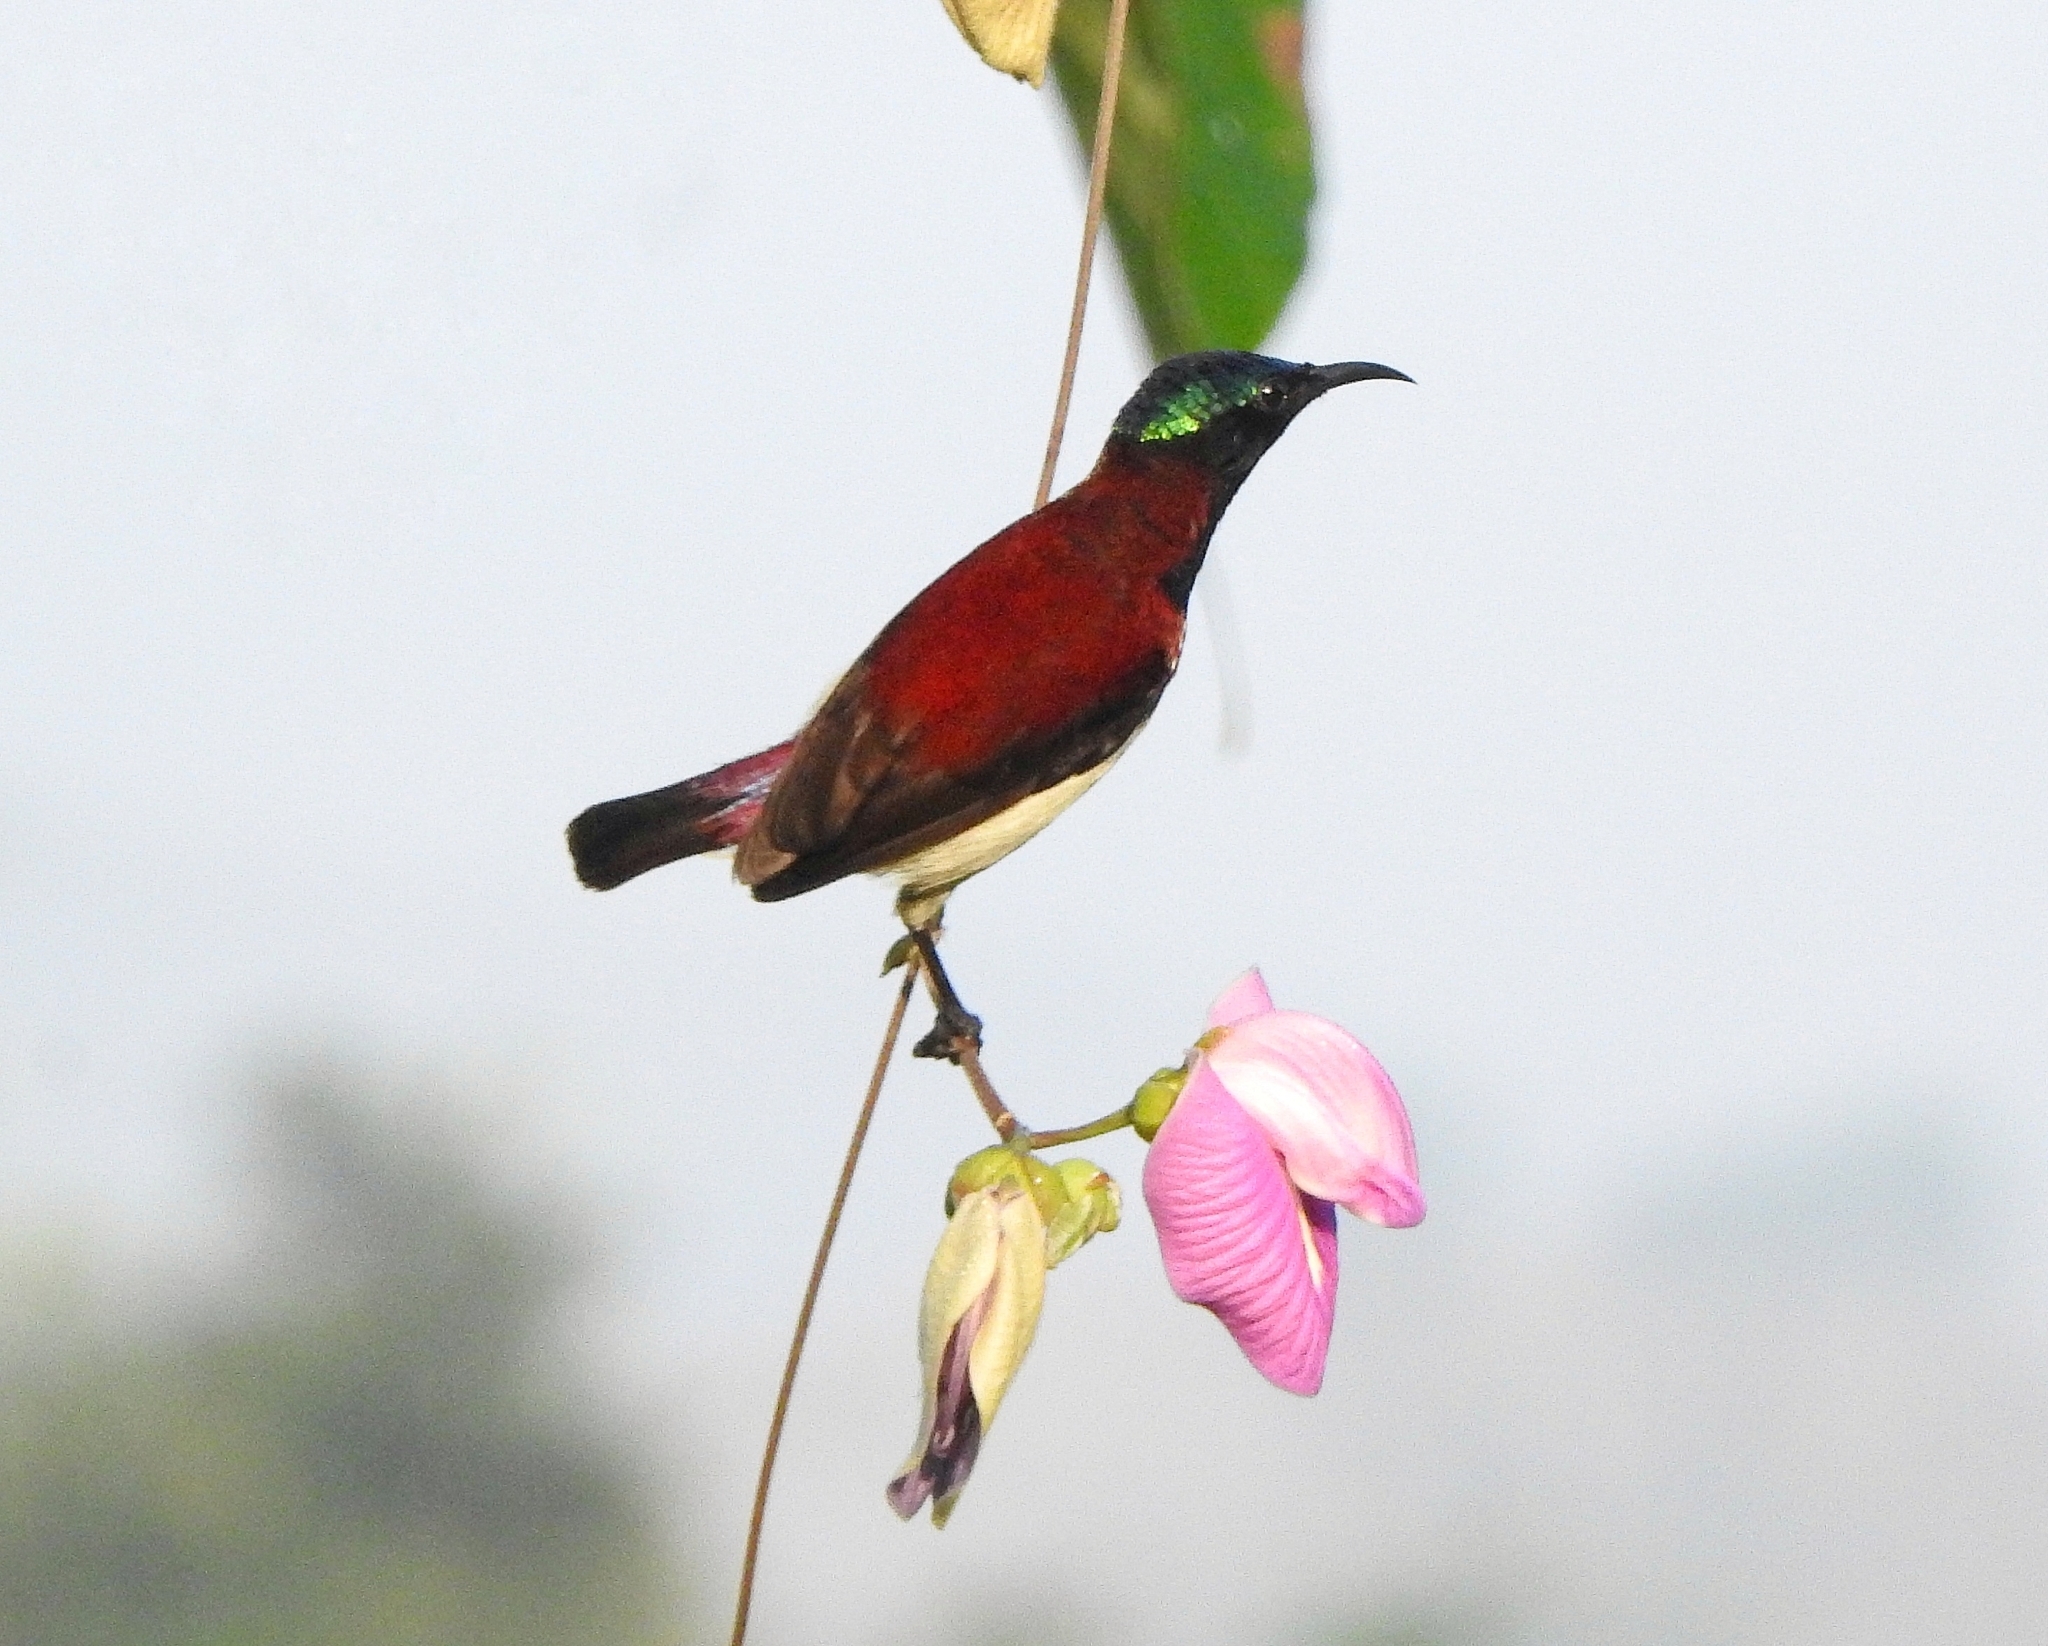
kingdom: Animalia
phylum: Chordata
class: Aves
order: Passeriformes
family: Nectariniidae
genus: Leptocoma
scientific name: Leptocoma minima
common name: Crimson-backed sunbird
